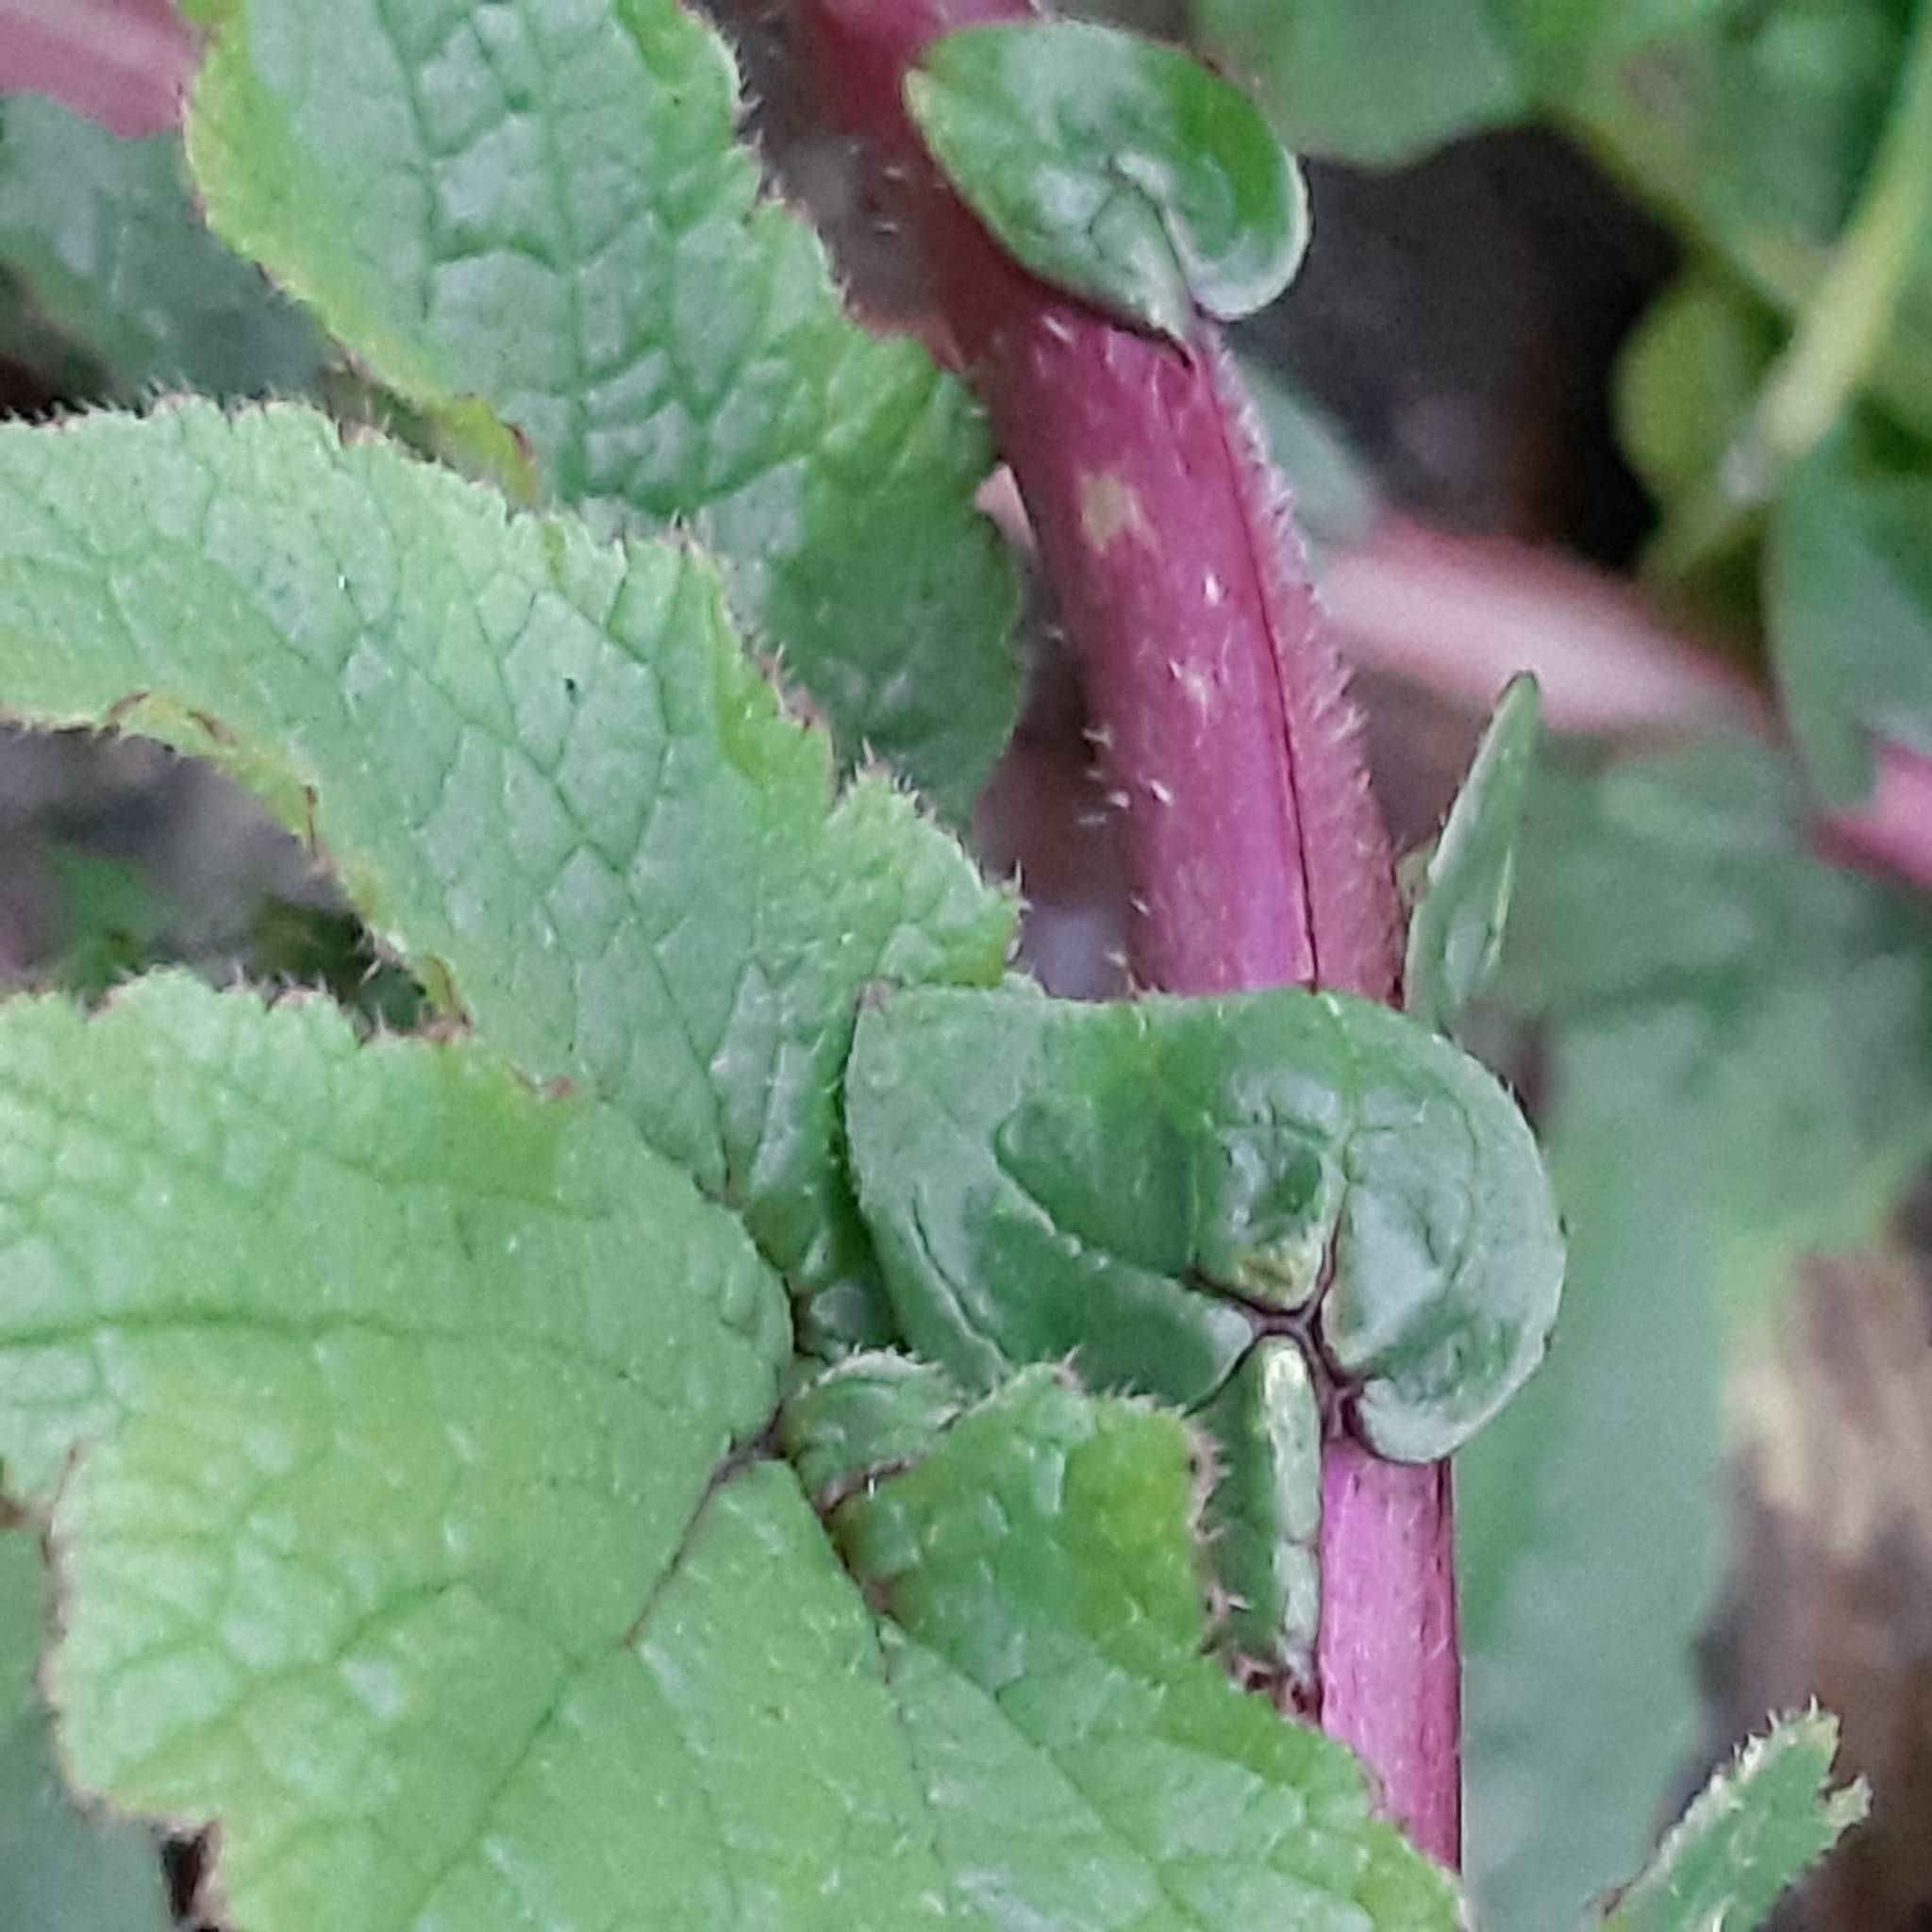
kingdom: Plantae
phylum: Tracheophyta
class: Magnoliopsida
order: Brassicales
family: Brassicaceae
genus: Raphanus
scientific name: Raphanus raphanistrum
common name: Wild radish
